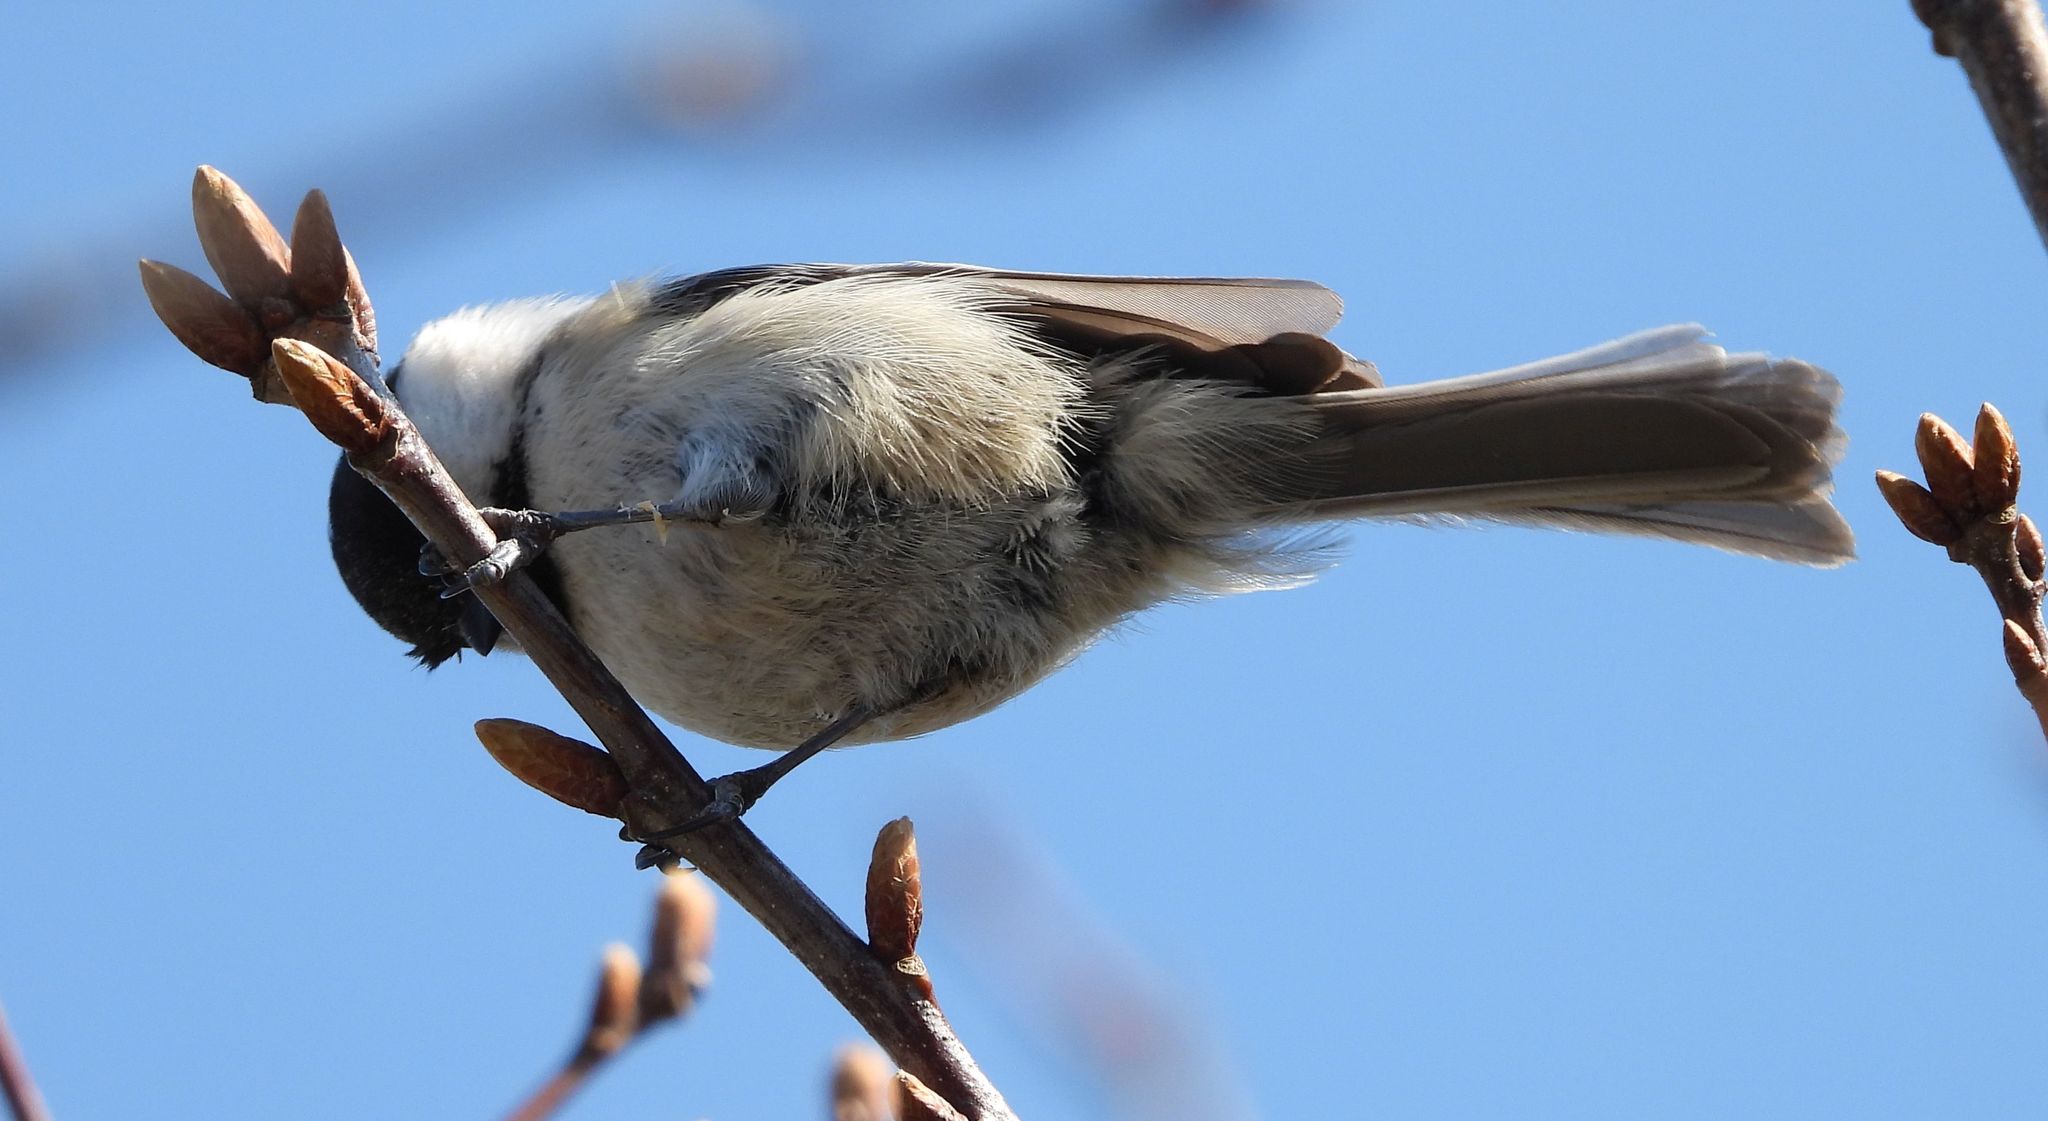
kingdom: Animalia
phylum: Chordata
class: Aves
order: Passeriformes
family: Paridae
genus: Poecile
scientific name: Poecile atricapillus
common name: Black-capped chickadee
